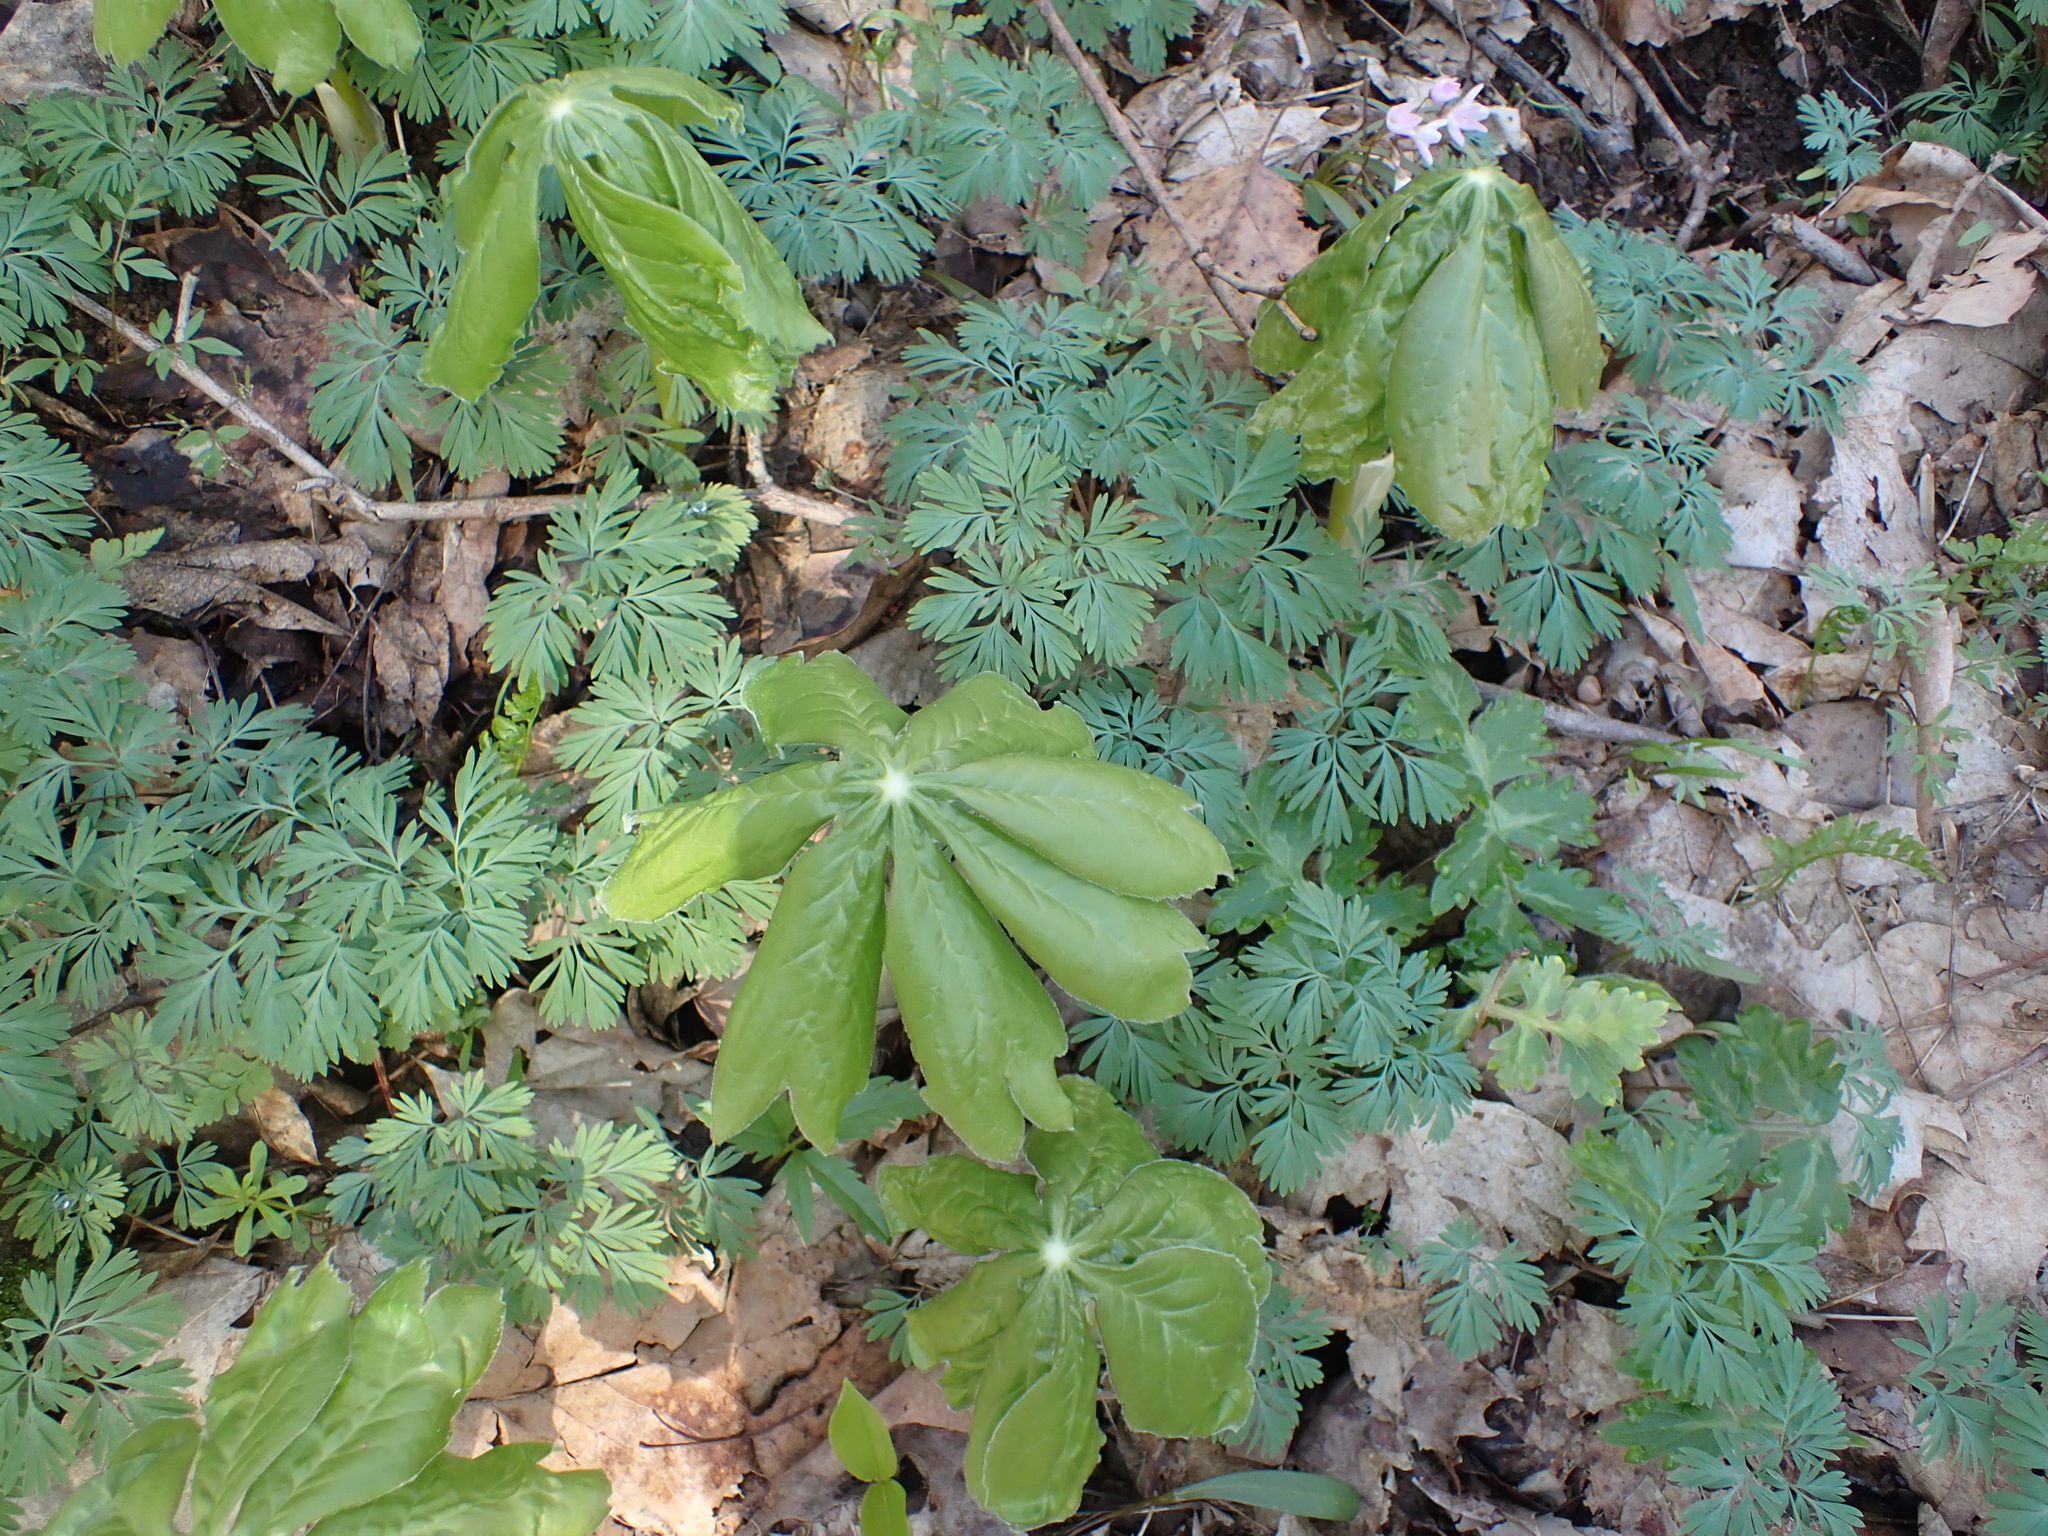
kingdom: Plantae
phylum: Tracheophyta
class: Magnoliopsida
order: Ranunculales
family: Berberidaceae
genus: Podophyllum
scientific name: Podophyllum peltatum
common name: Wild mandrake
